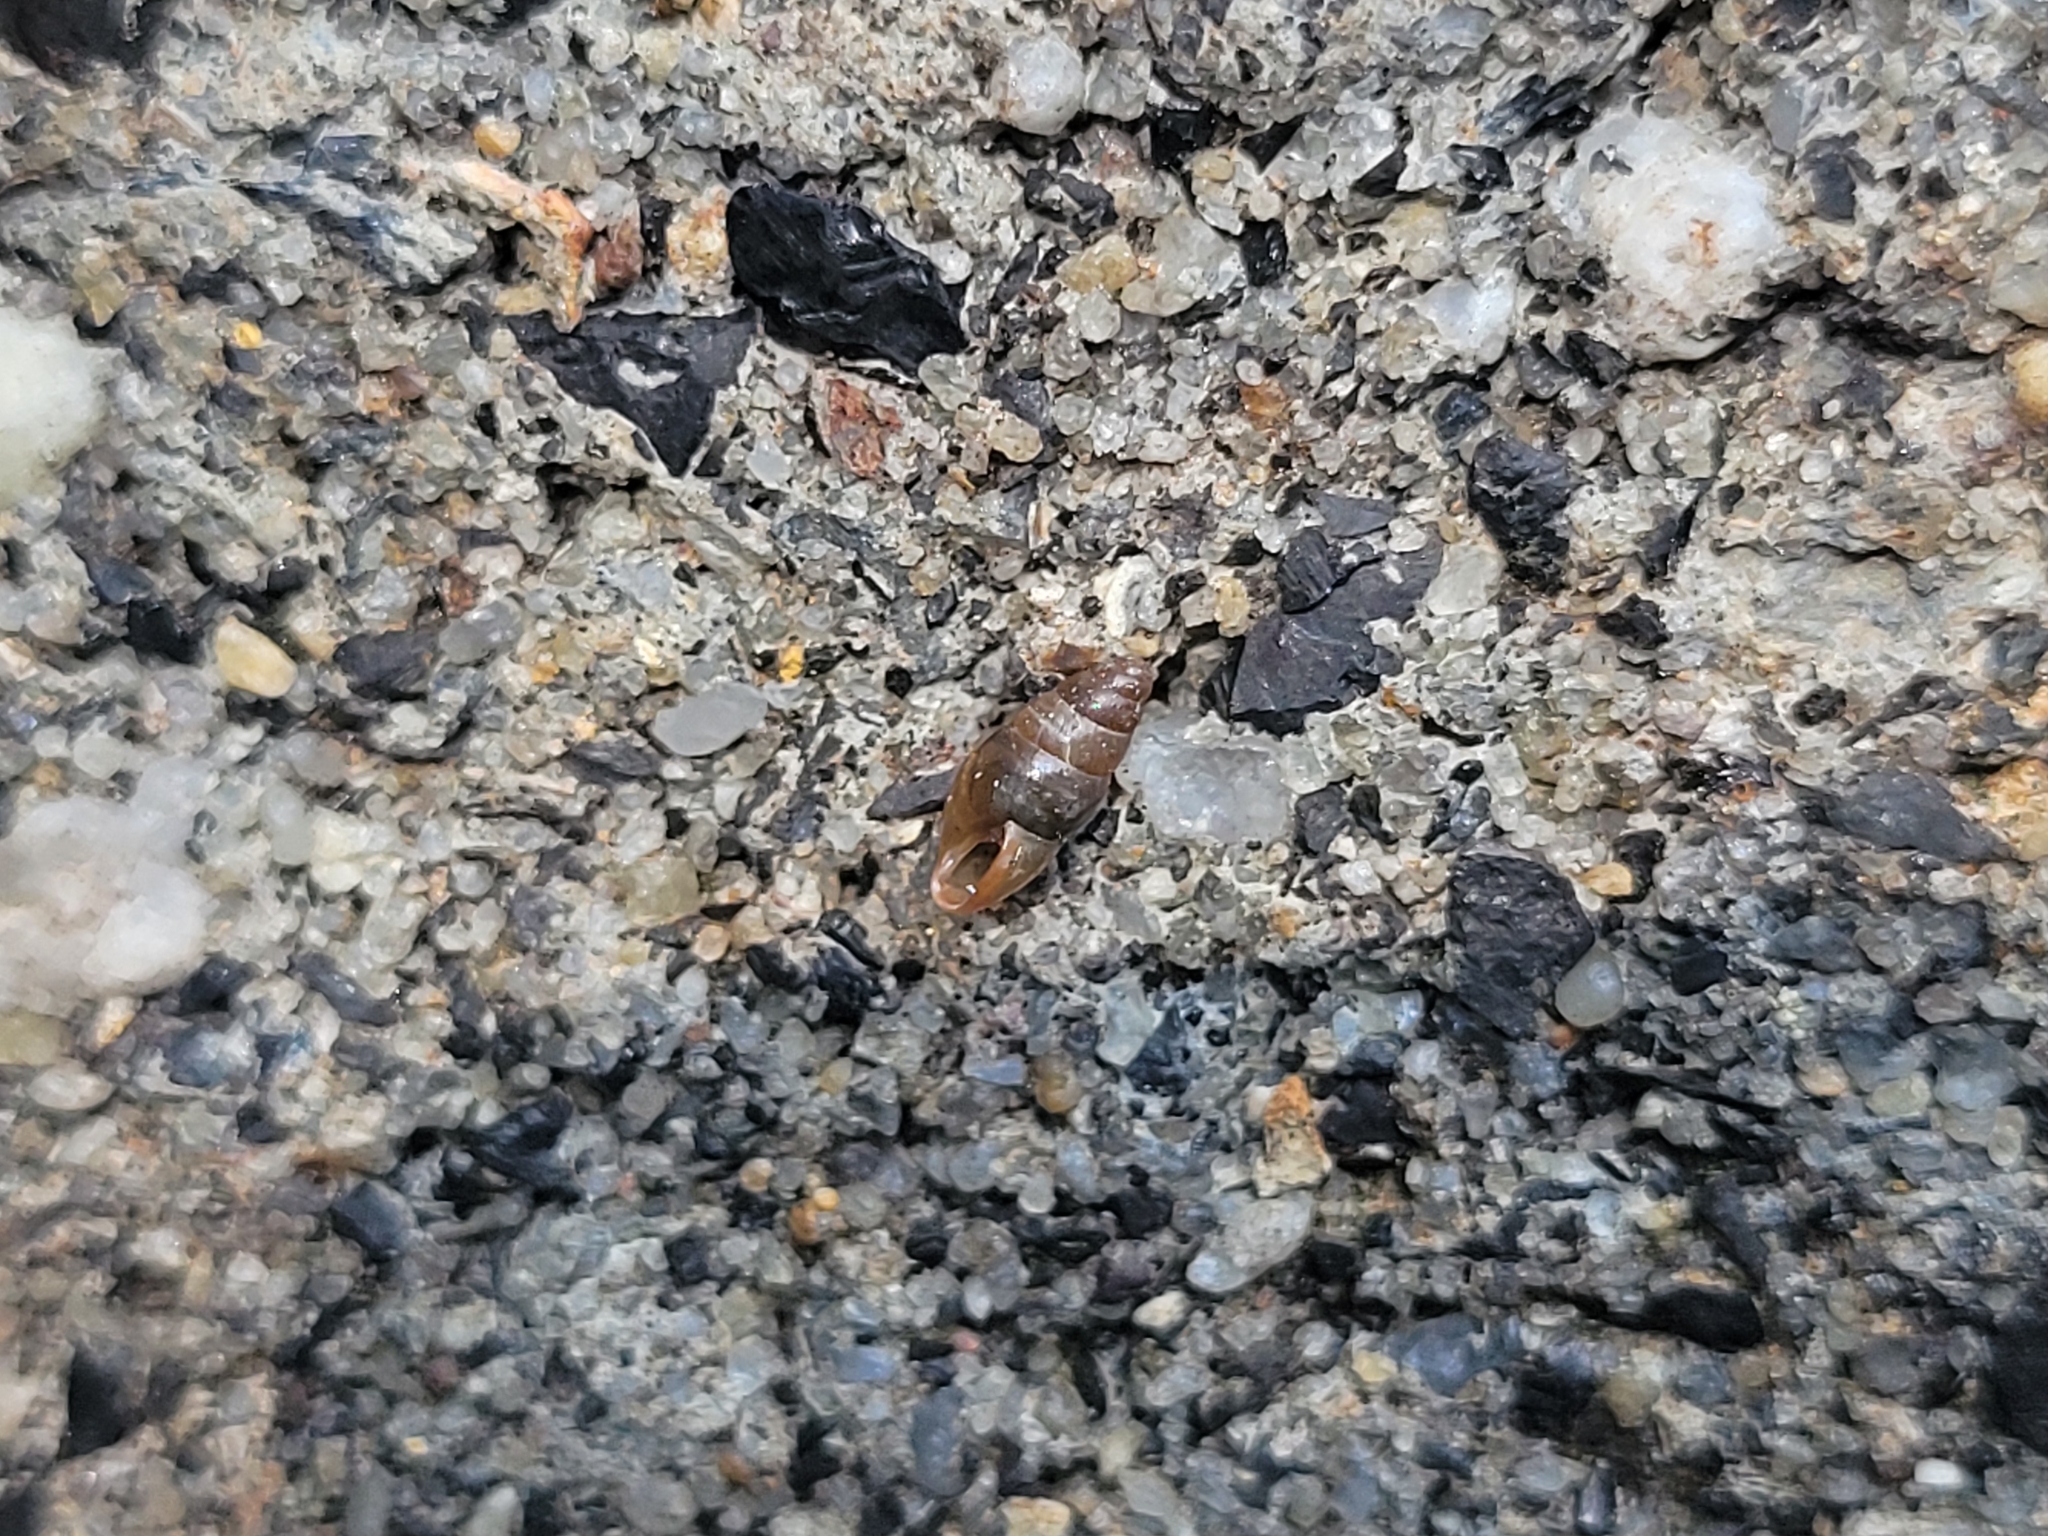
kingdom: Animalia
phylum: Mollusca
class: Gastropoda
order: Stylommatophora
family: Cochlicopidae
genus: Cochlicopa
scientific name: Cochlicopa lubrica
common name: Glossy pillar snail
